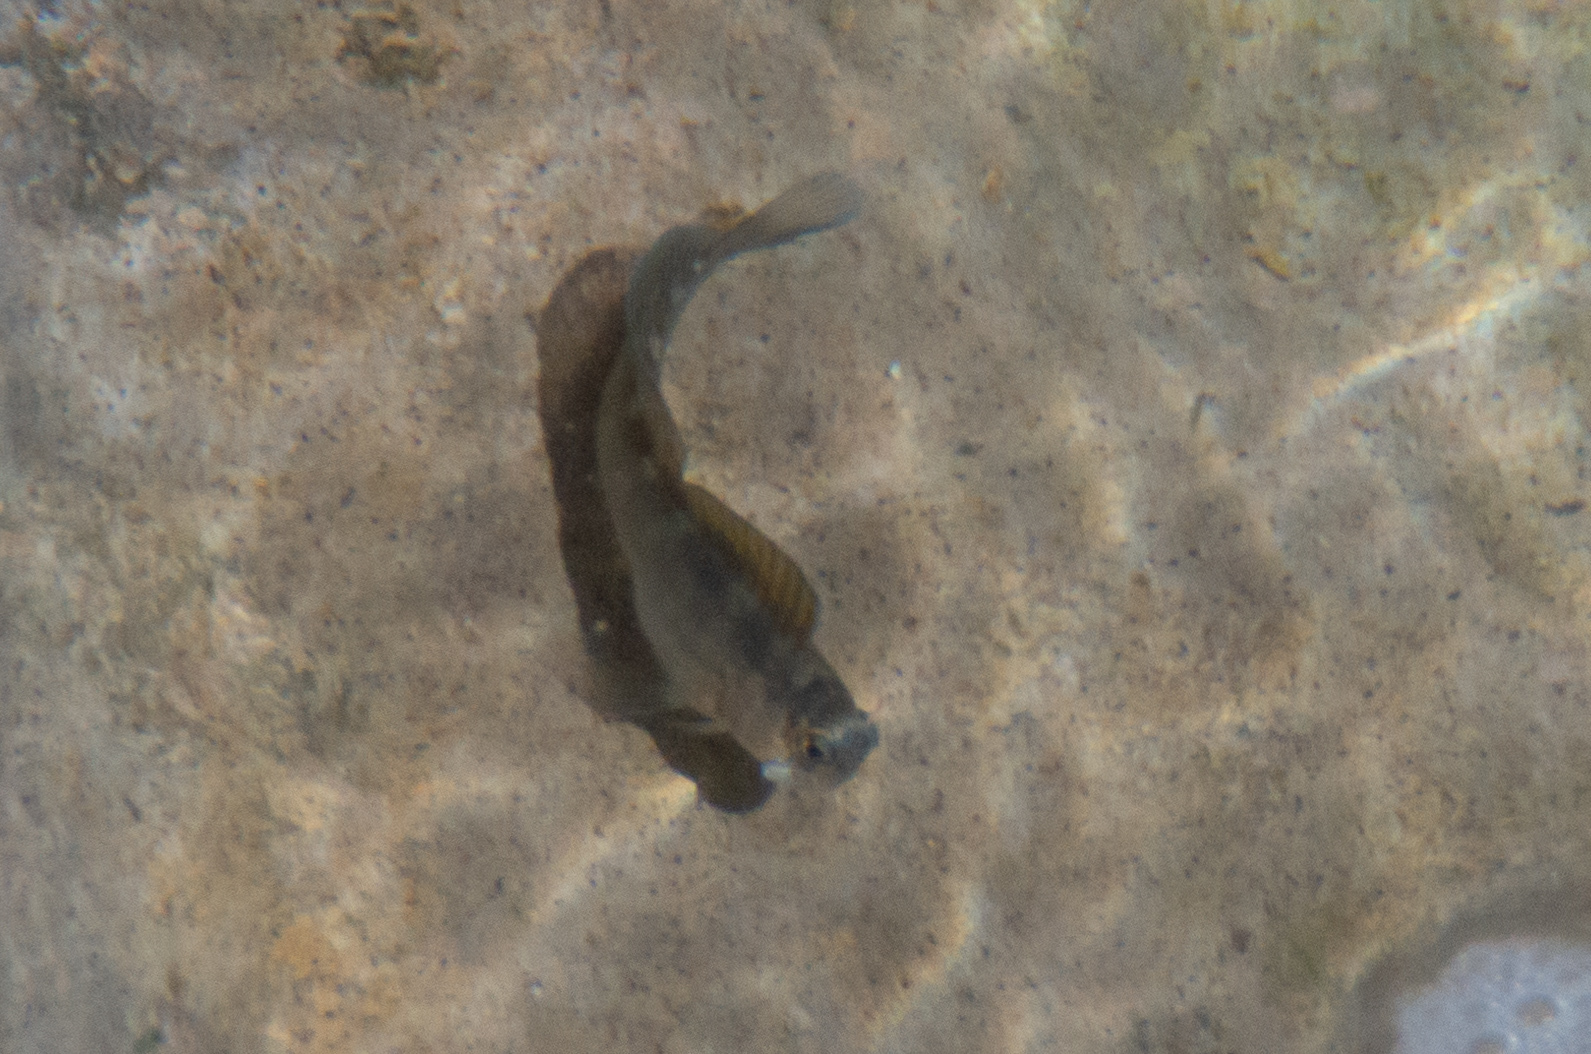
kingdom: Animalia
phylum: Chordata
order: Perciformes
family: Blenniidae
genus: Istiblennius
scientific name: Istiblennius zebra
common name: Zebra blenny
